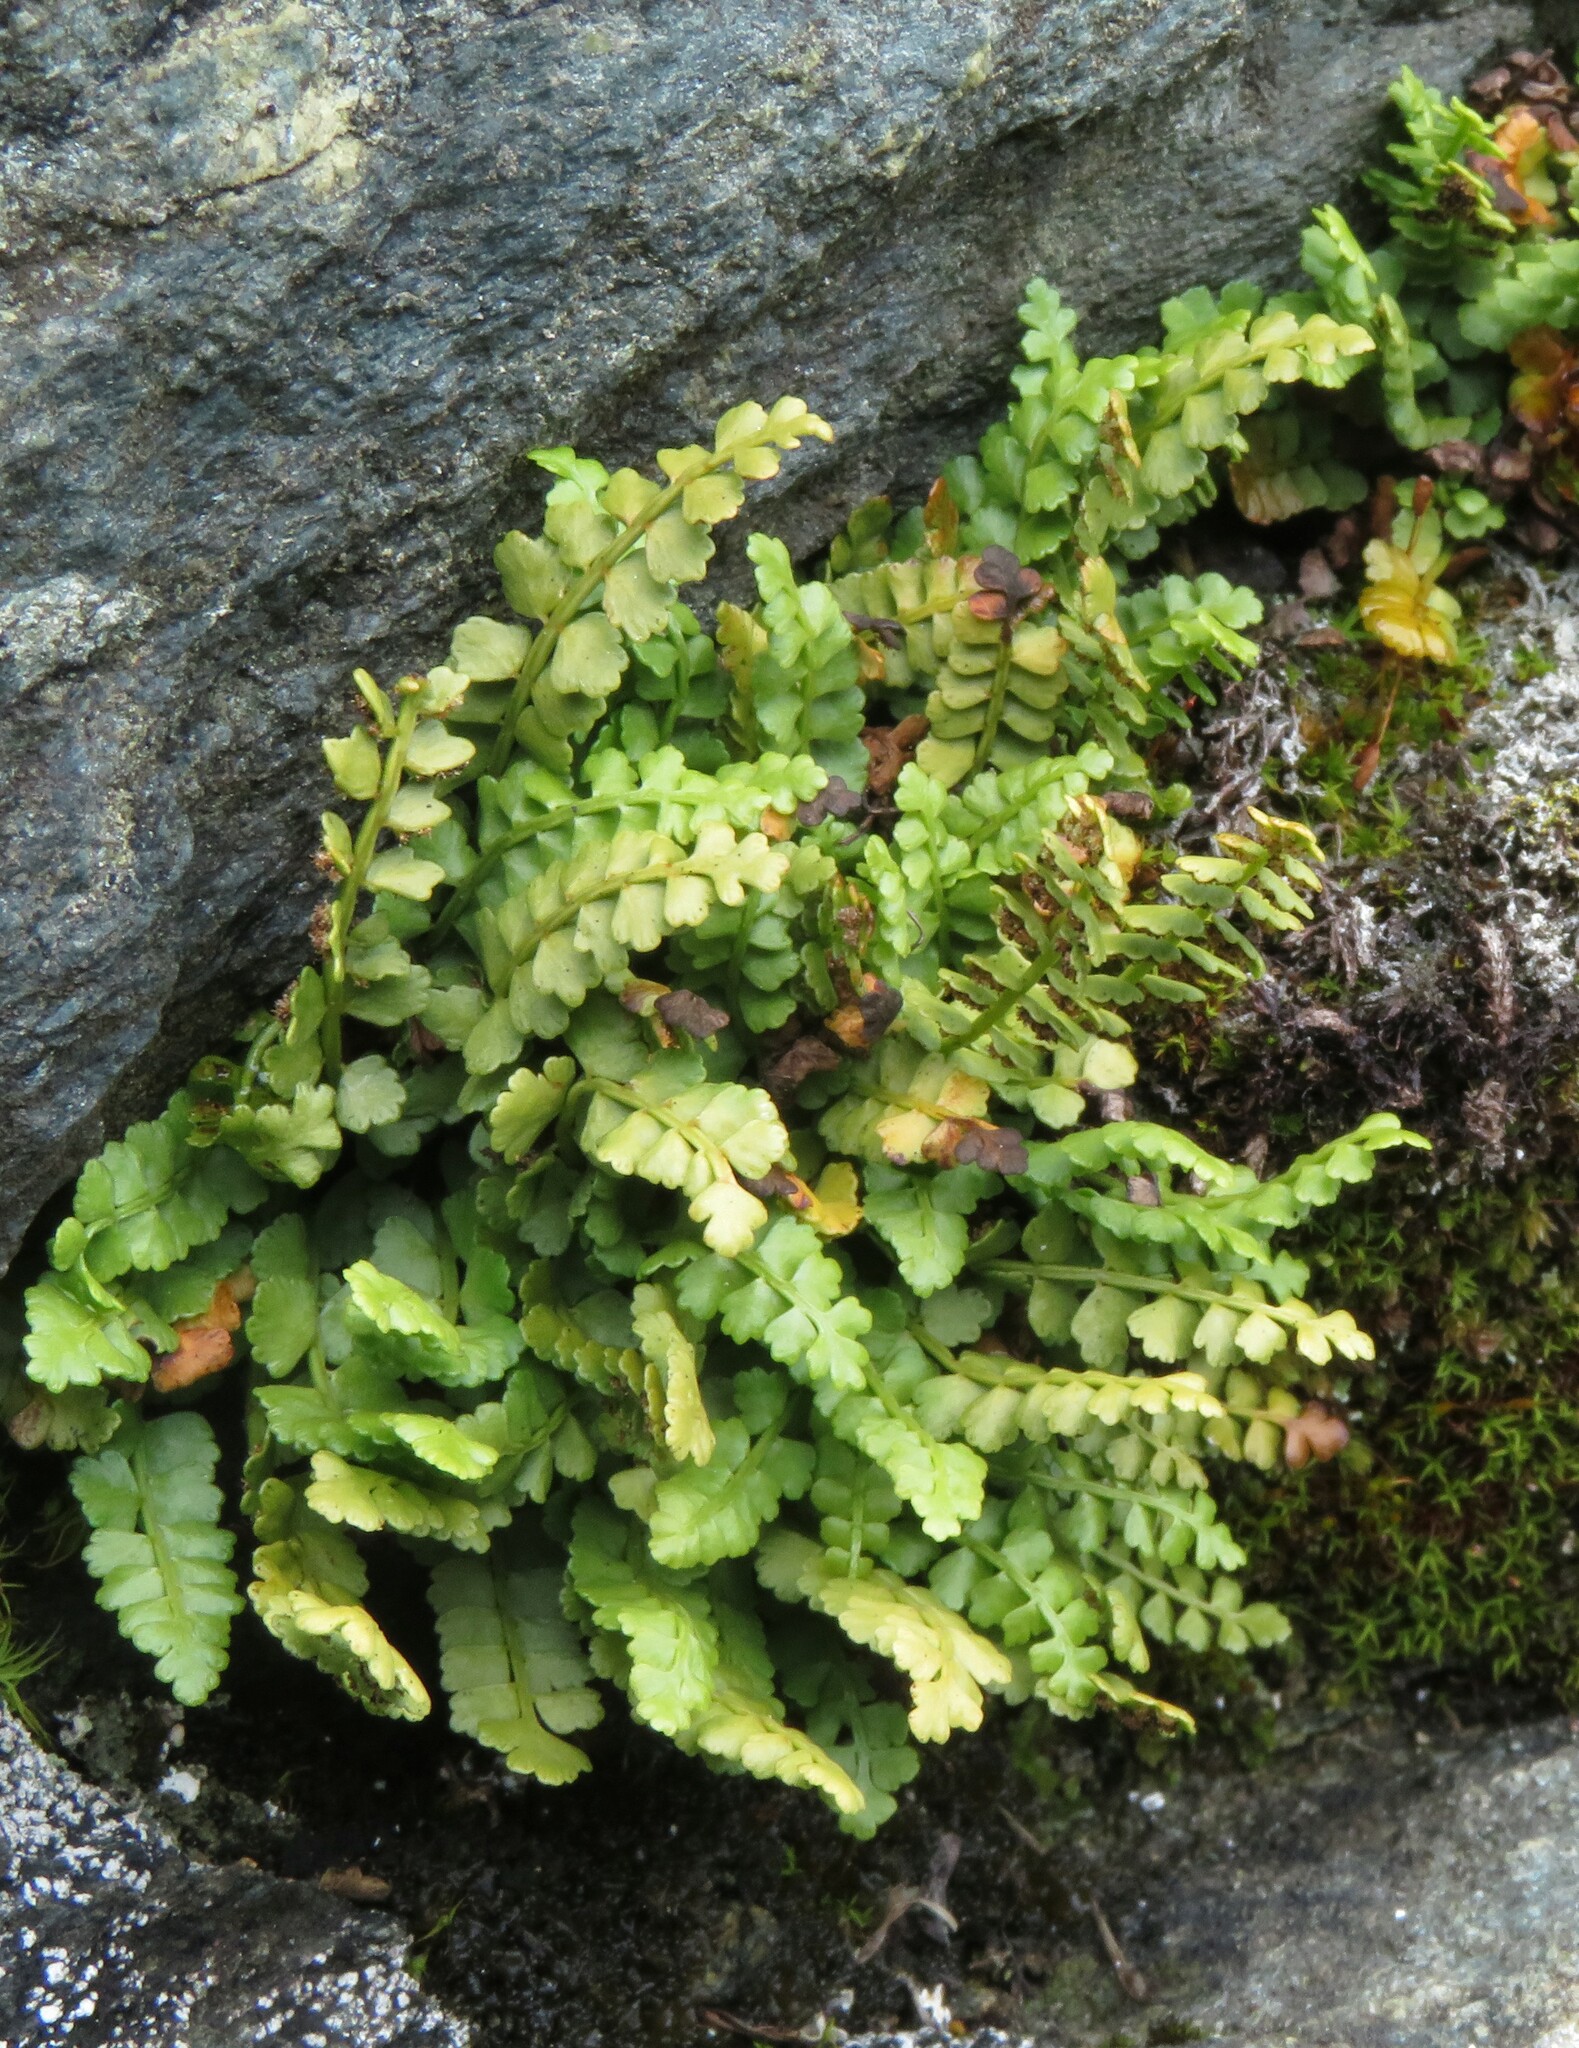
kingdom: Plantae
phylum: Tracheophyta
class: Polypodiopsida
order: Polypodiales
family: Aspleniaceae
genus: Asplenium
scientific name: Asplenium viride
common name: Green spleenwort
